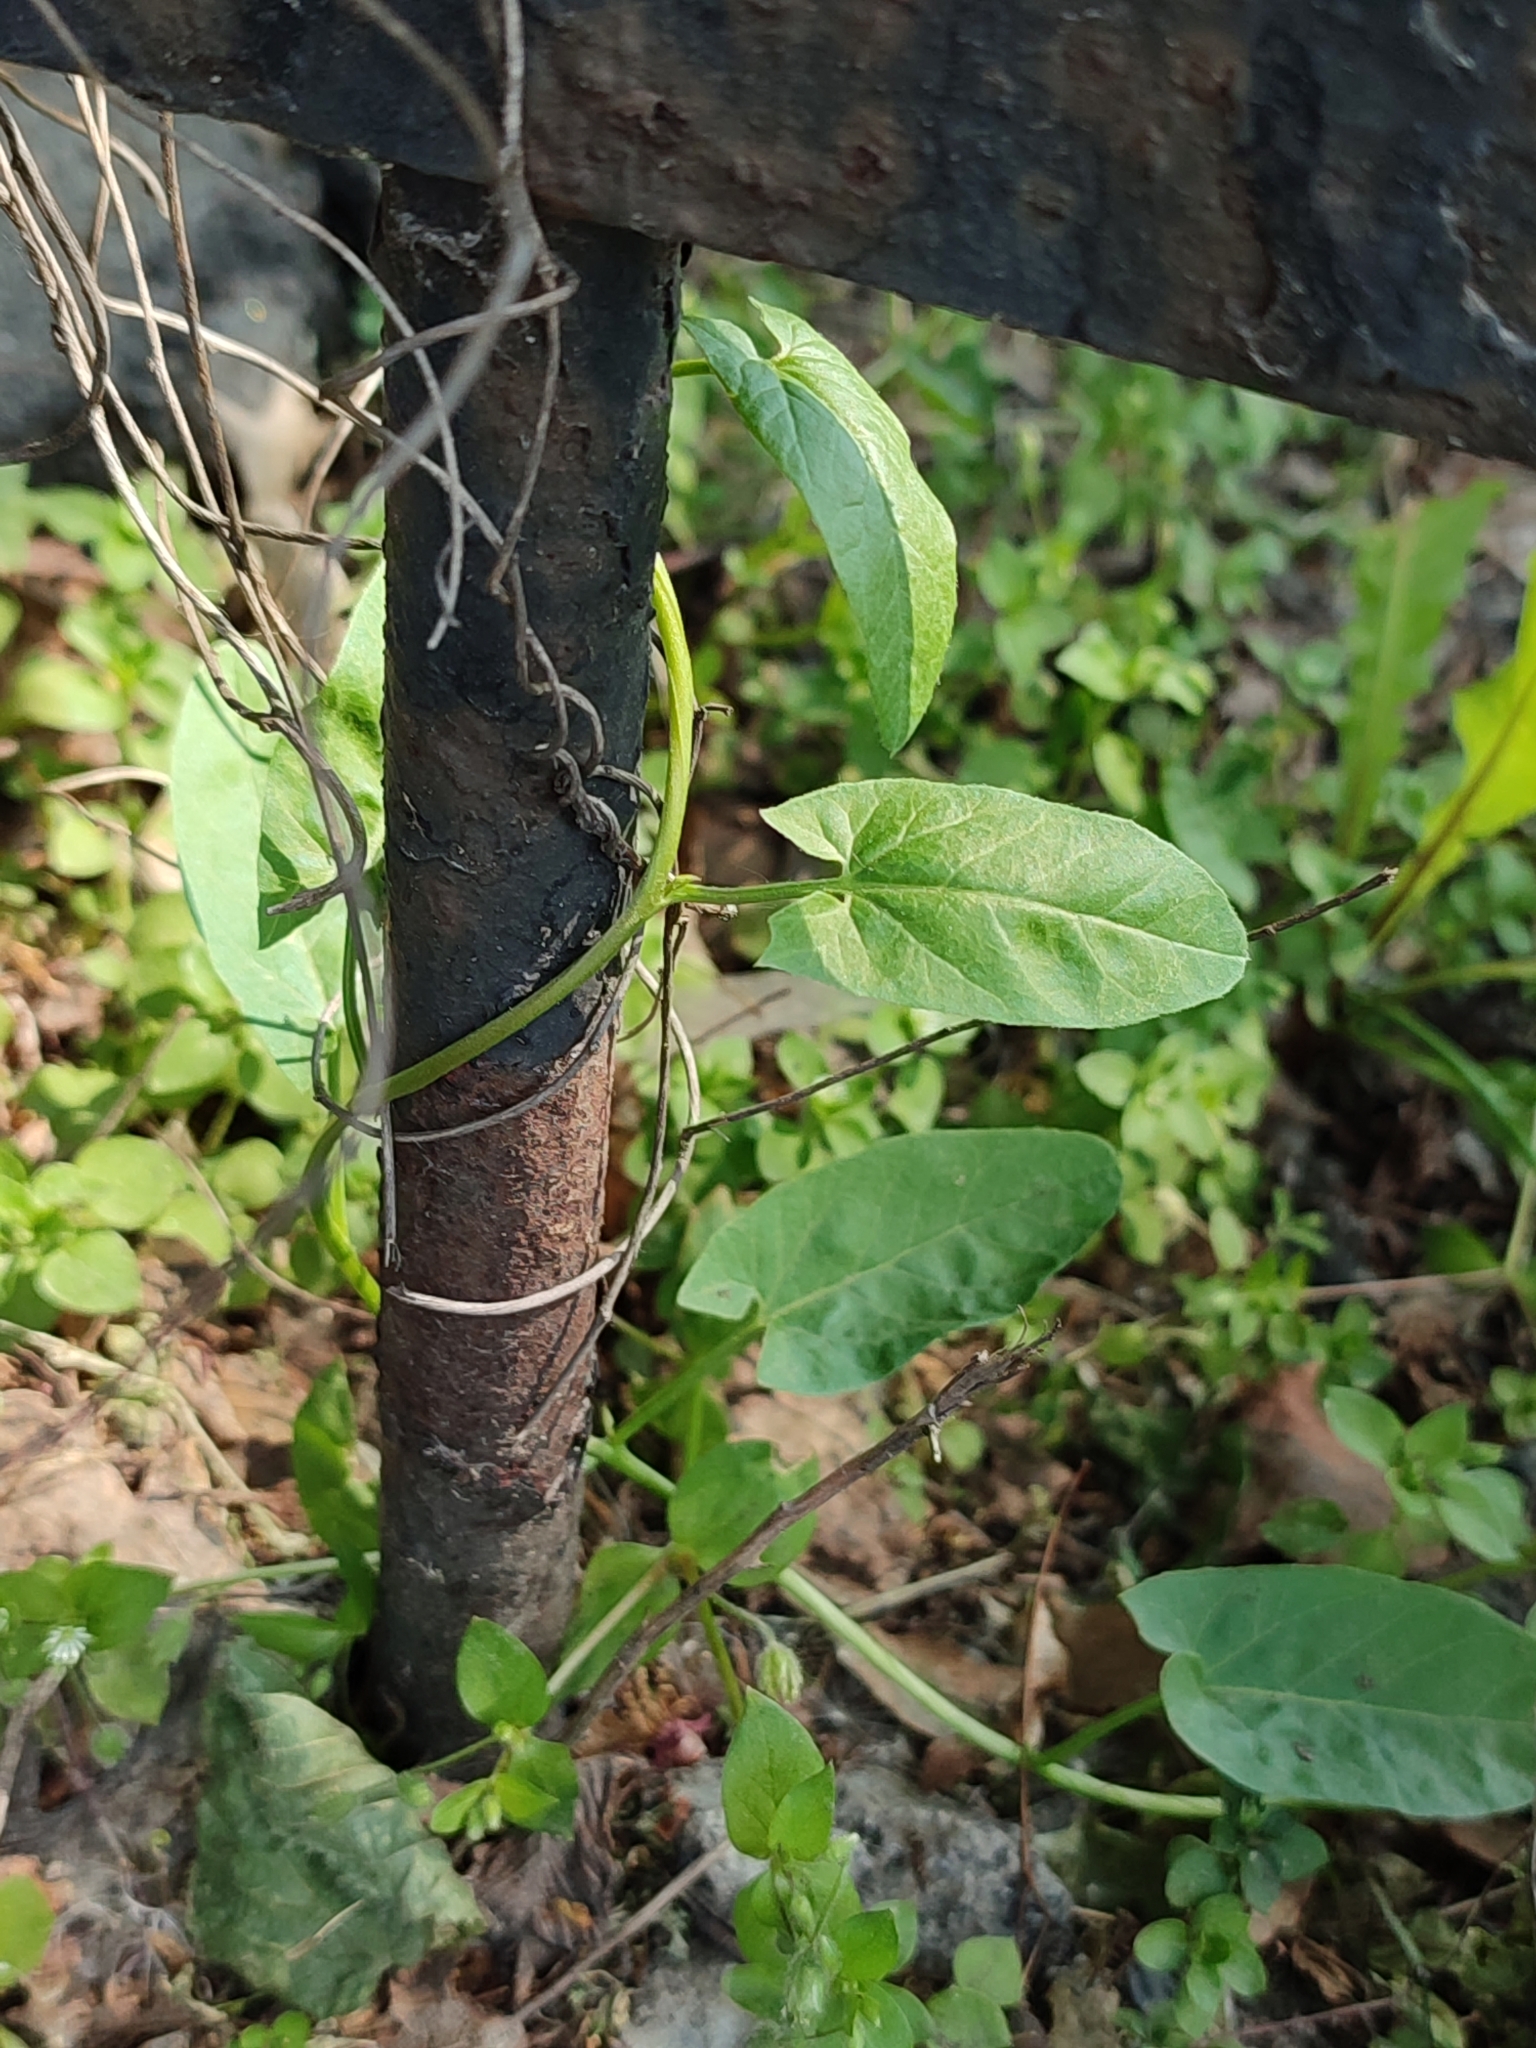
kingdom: Plantae
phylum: Tracheophyta
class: Magnoliopsida
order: Solanales
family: Convolvulaceae
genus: Convolvulus
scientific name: Convolvulus arvensis
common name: Field bindweed
